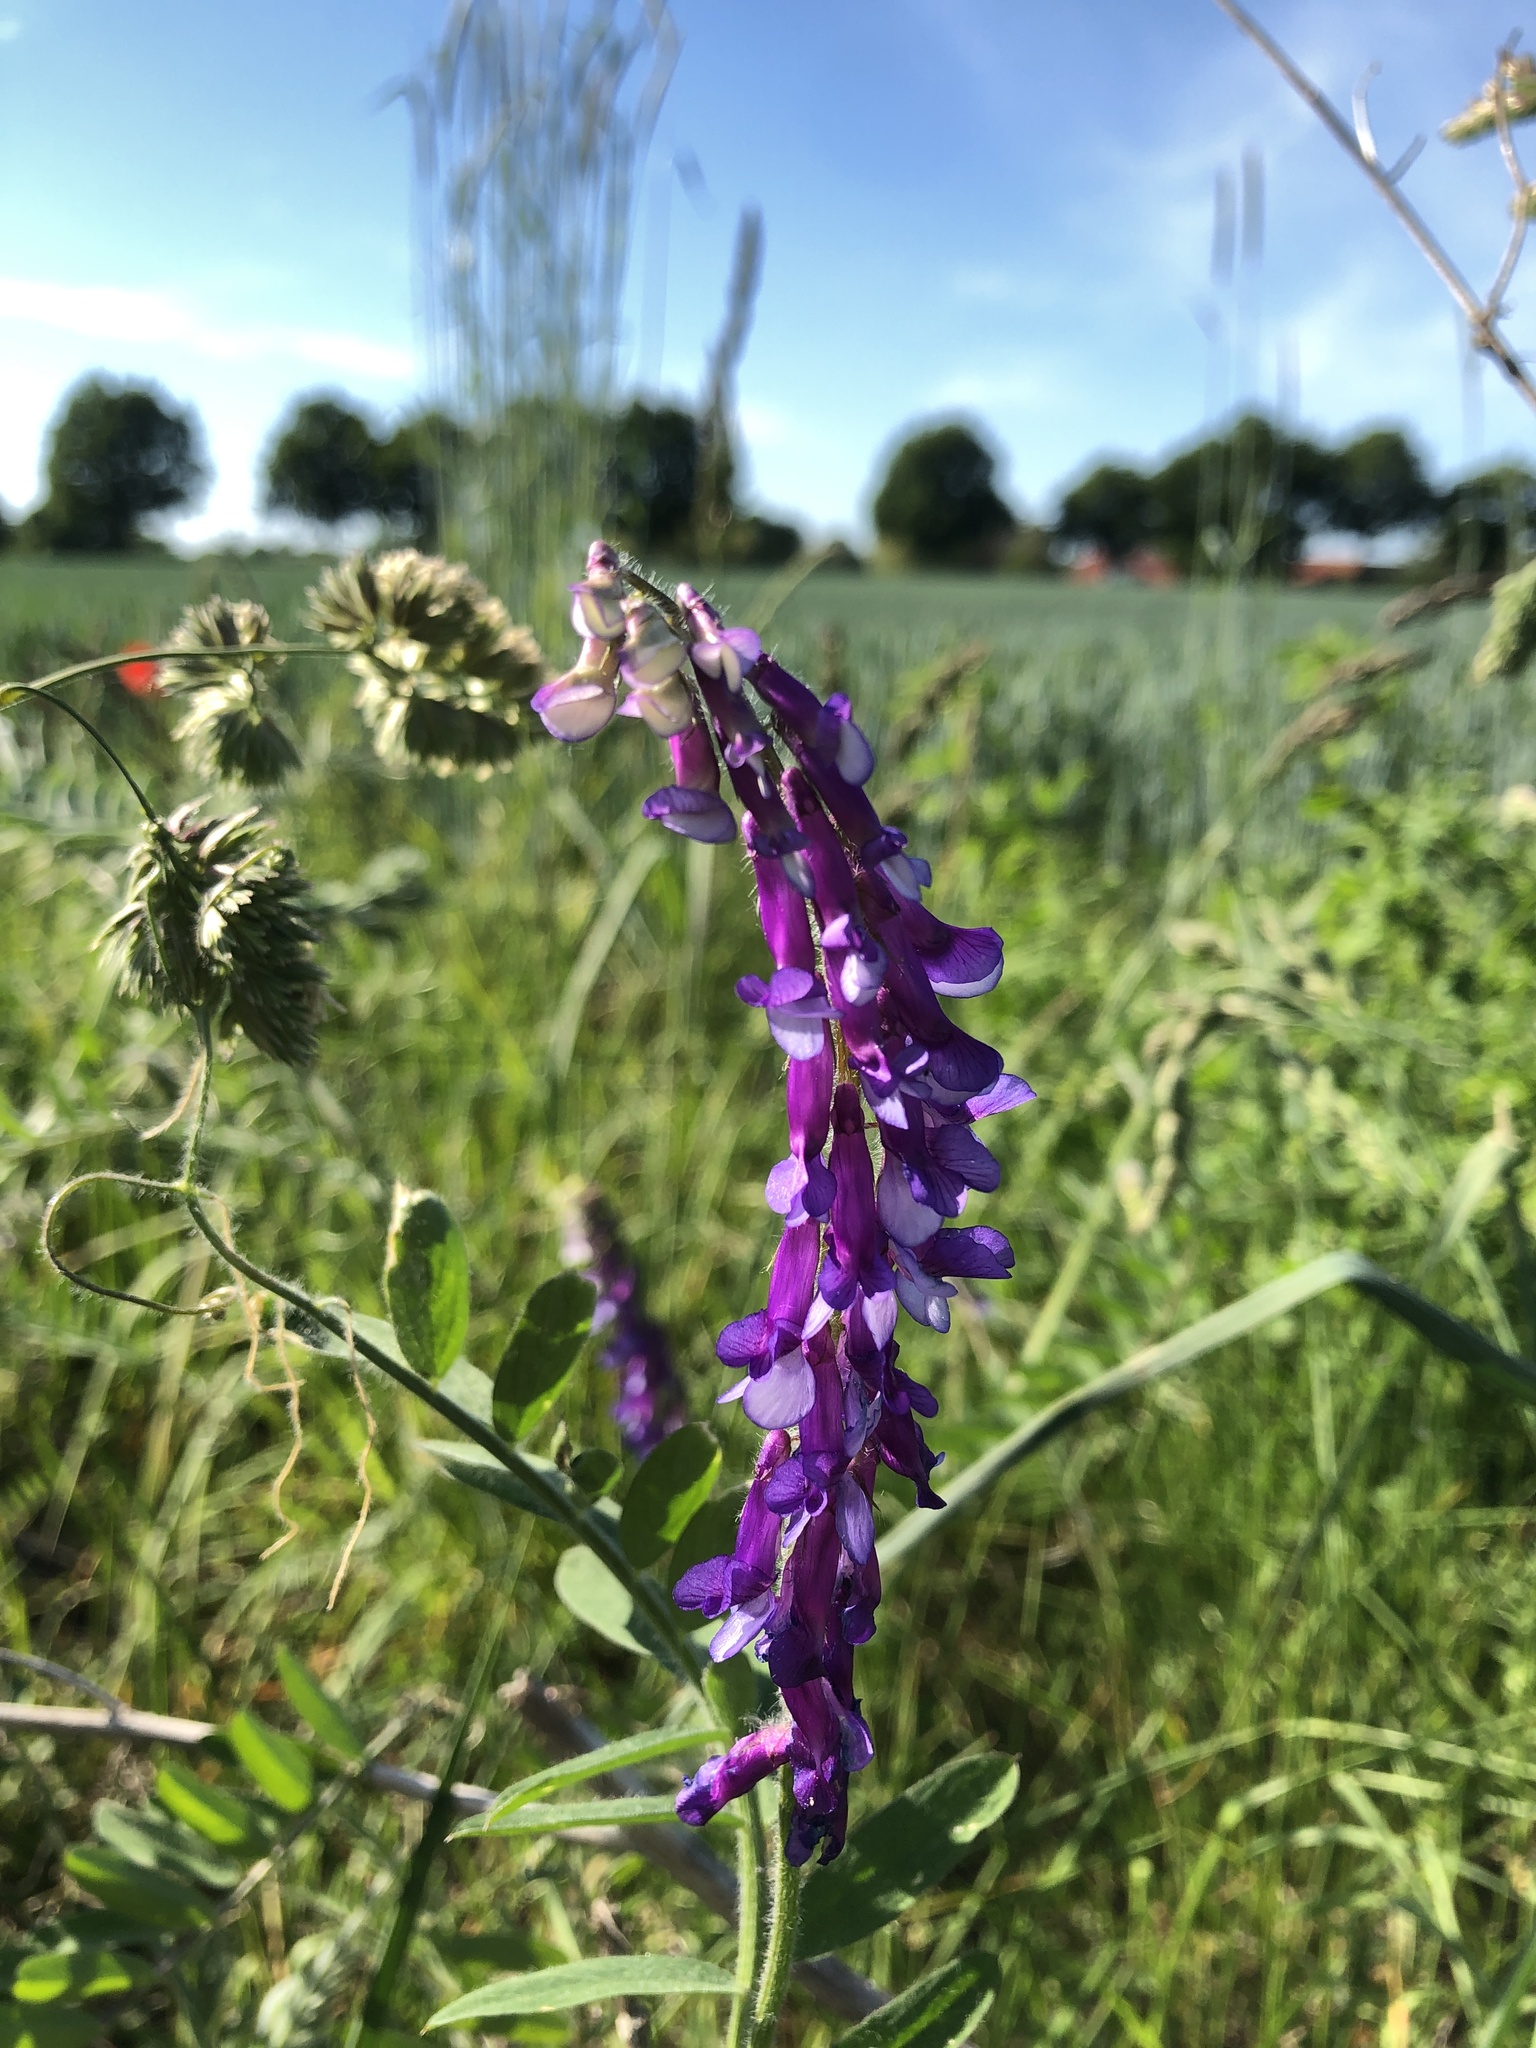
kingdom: Plantae
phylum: Tracheophyta
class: Magnoliopsida
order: Fabales
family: Fabaceae
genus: Vicia
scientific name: Vicia villosa
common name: Fodder vetch
